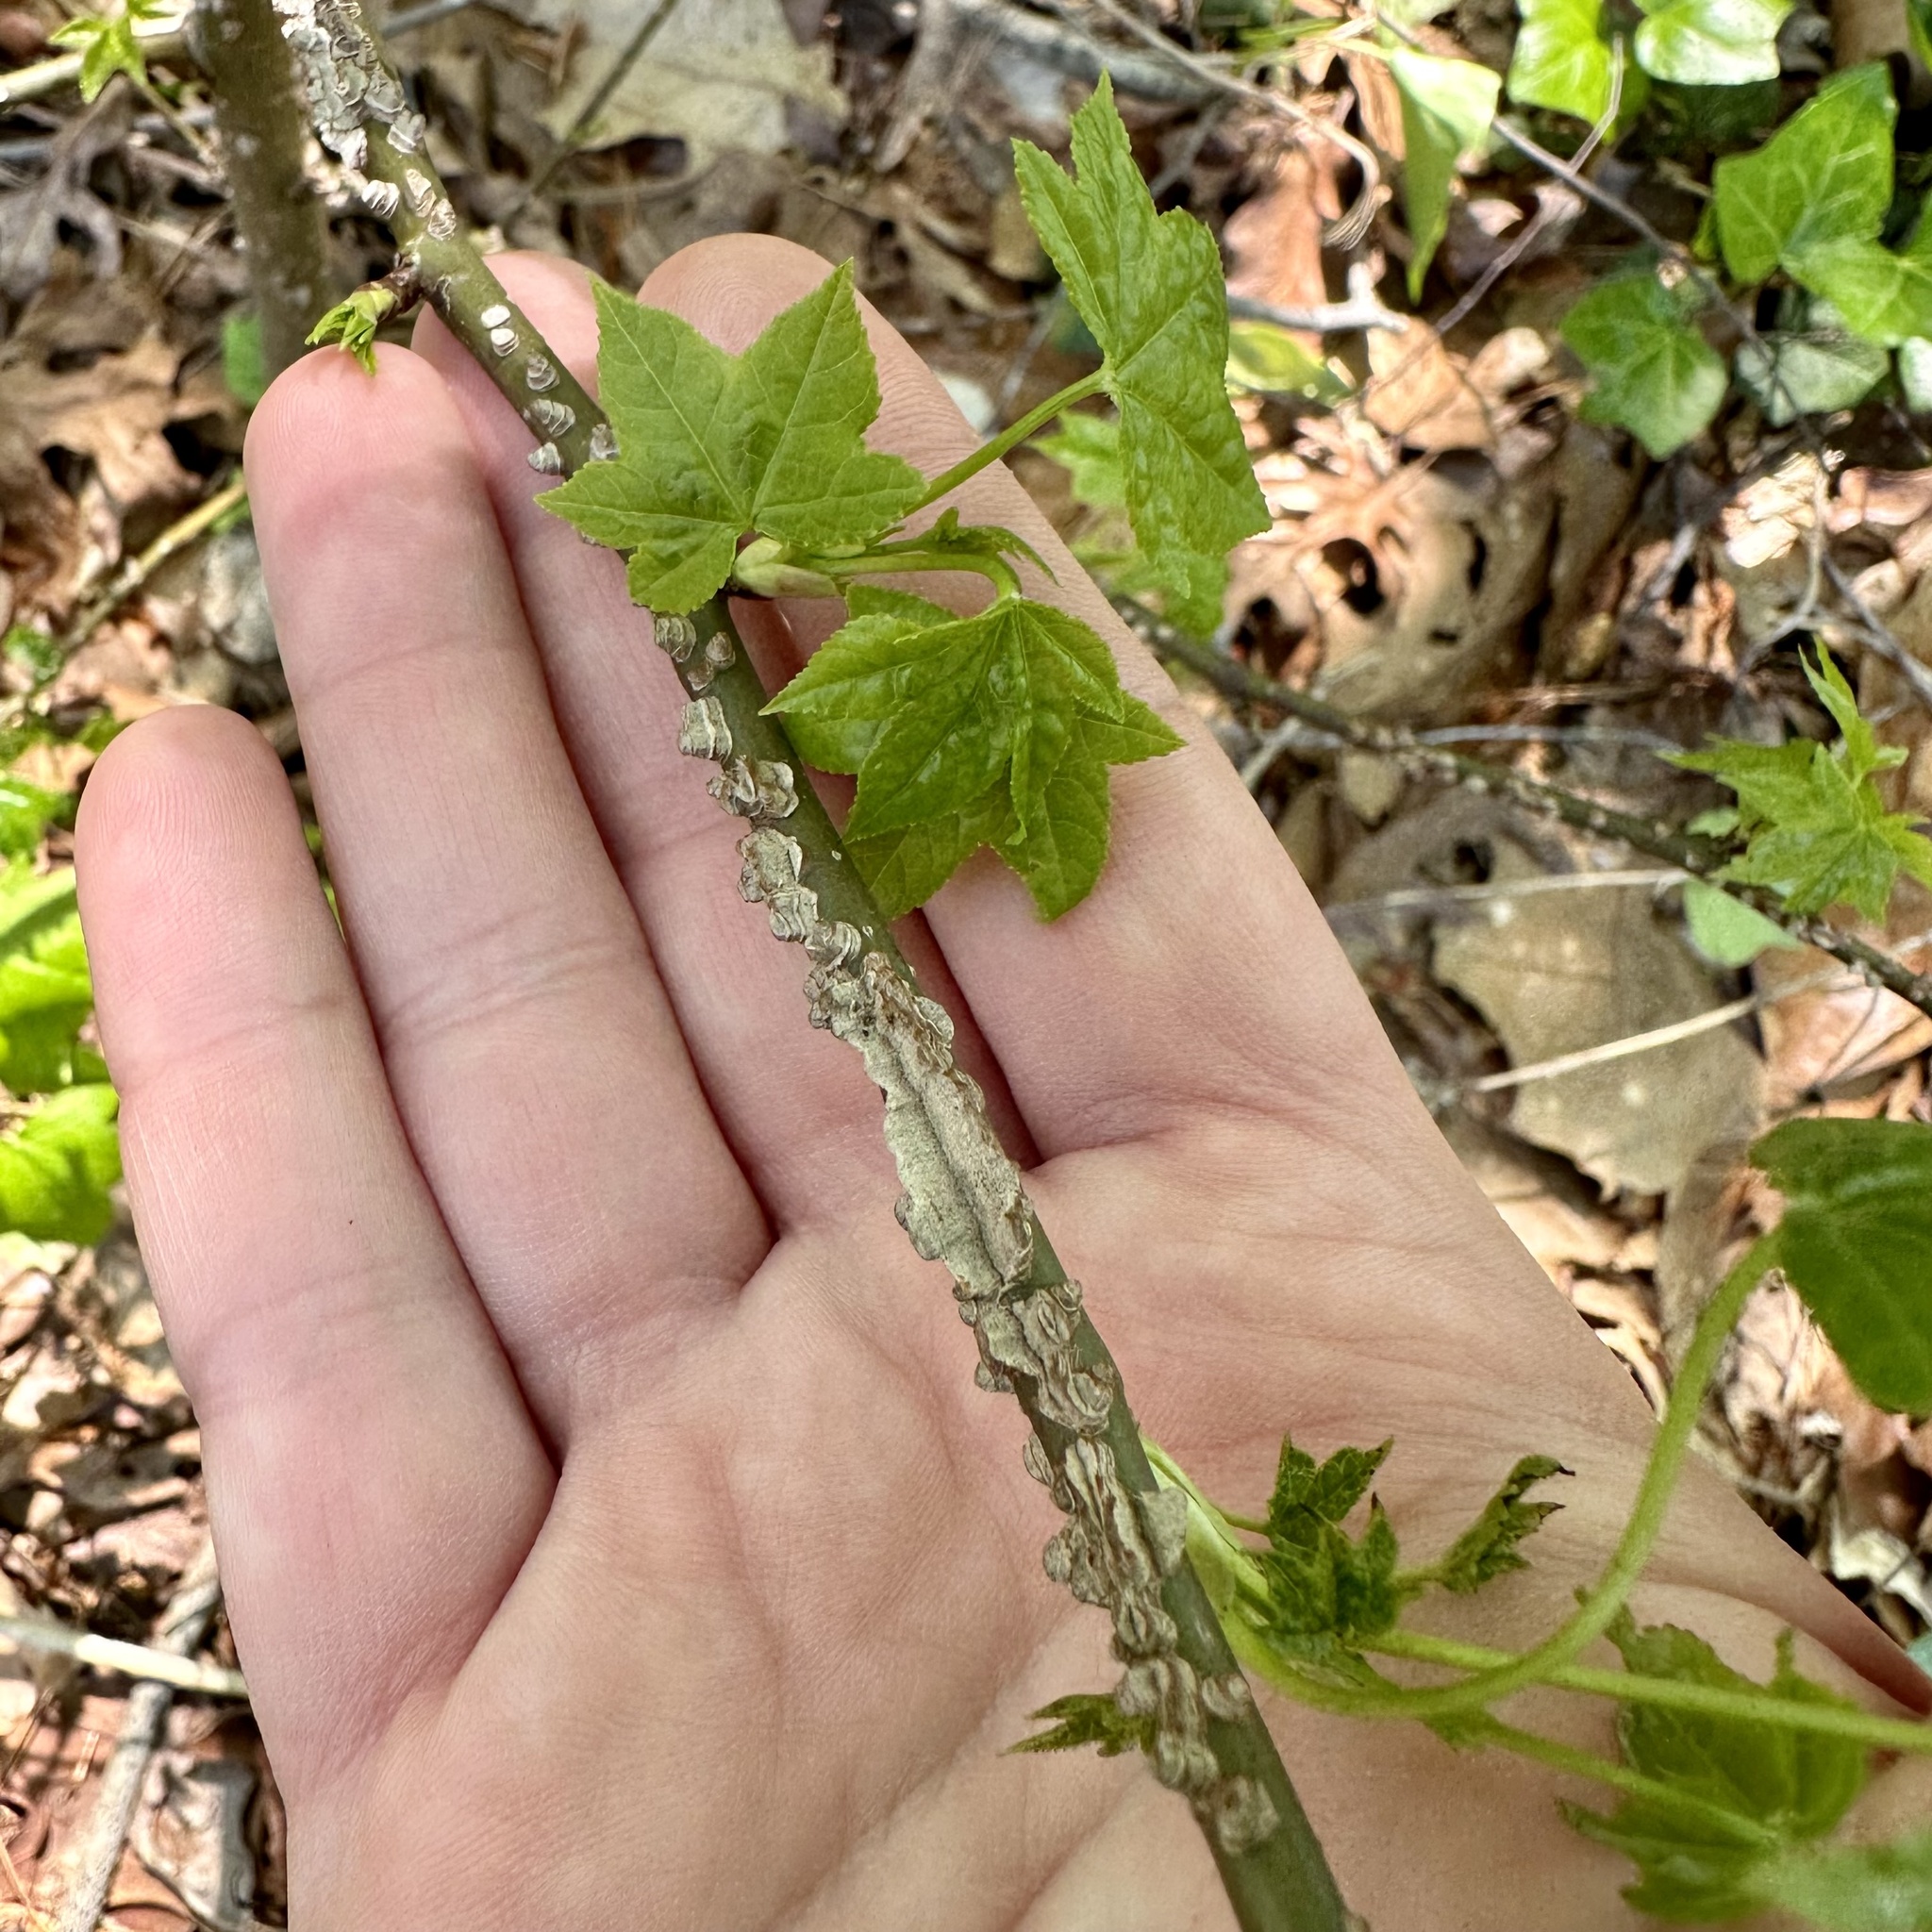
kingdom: Plantae
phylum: Tracheophyta
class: Magnoliopsida
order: Saxifragales
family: Altingiaceae
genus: Liquidambar
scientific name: Liquidambar styraciflua
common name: Sweet gum
